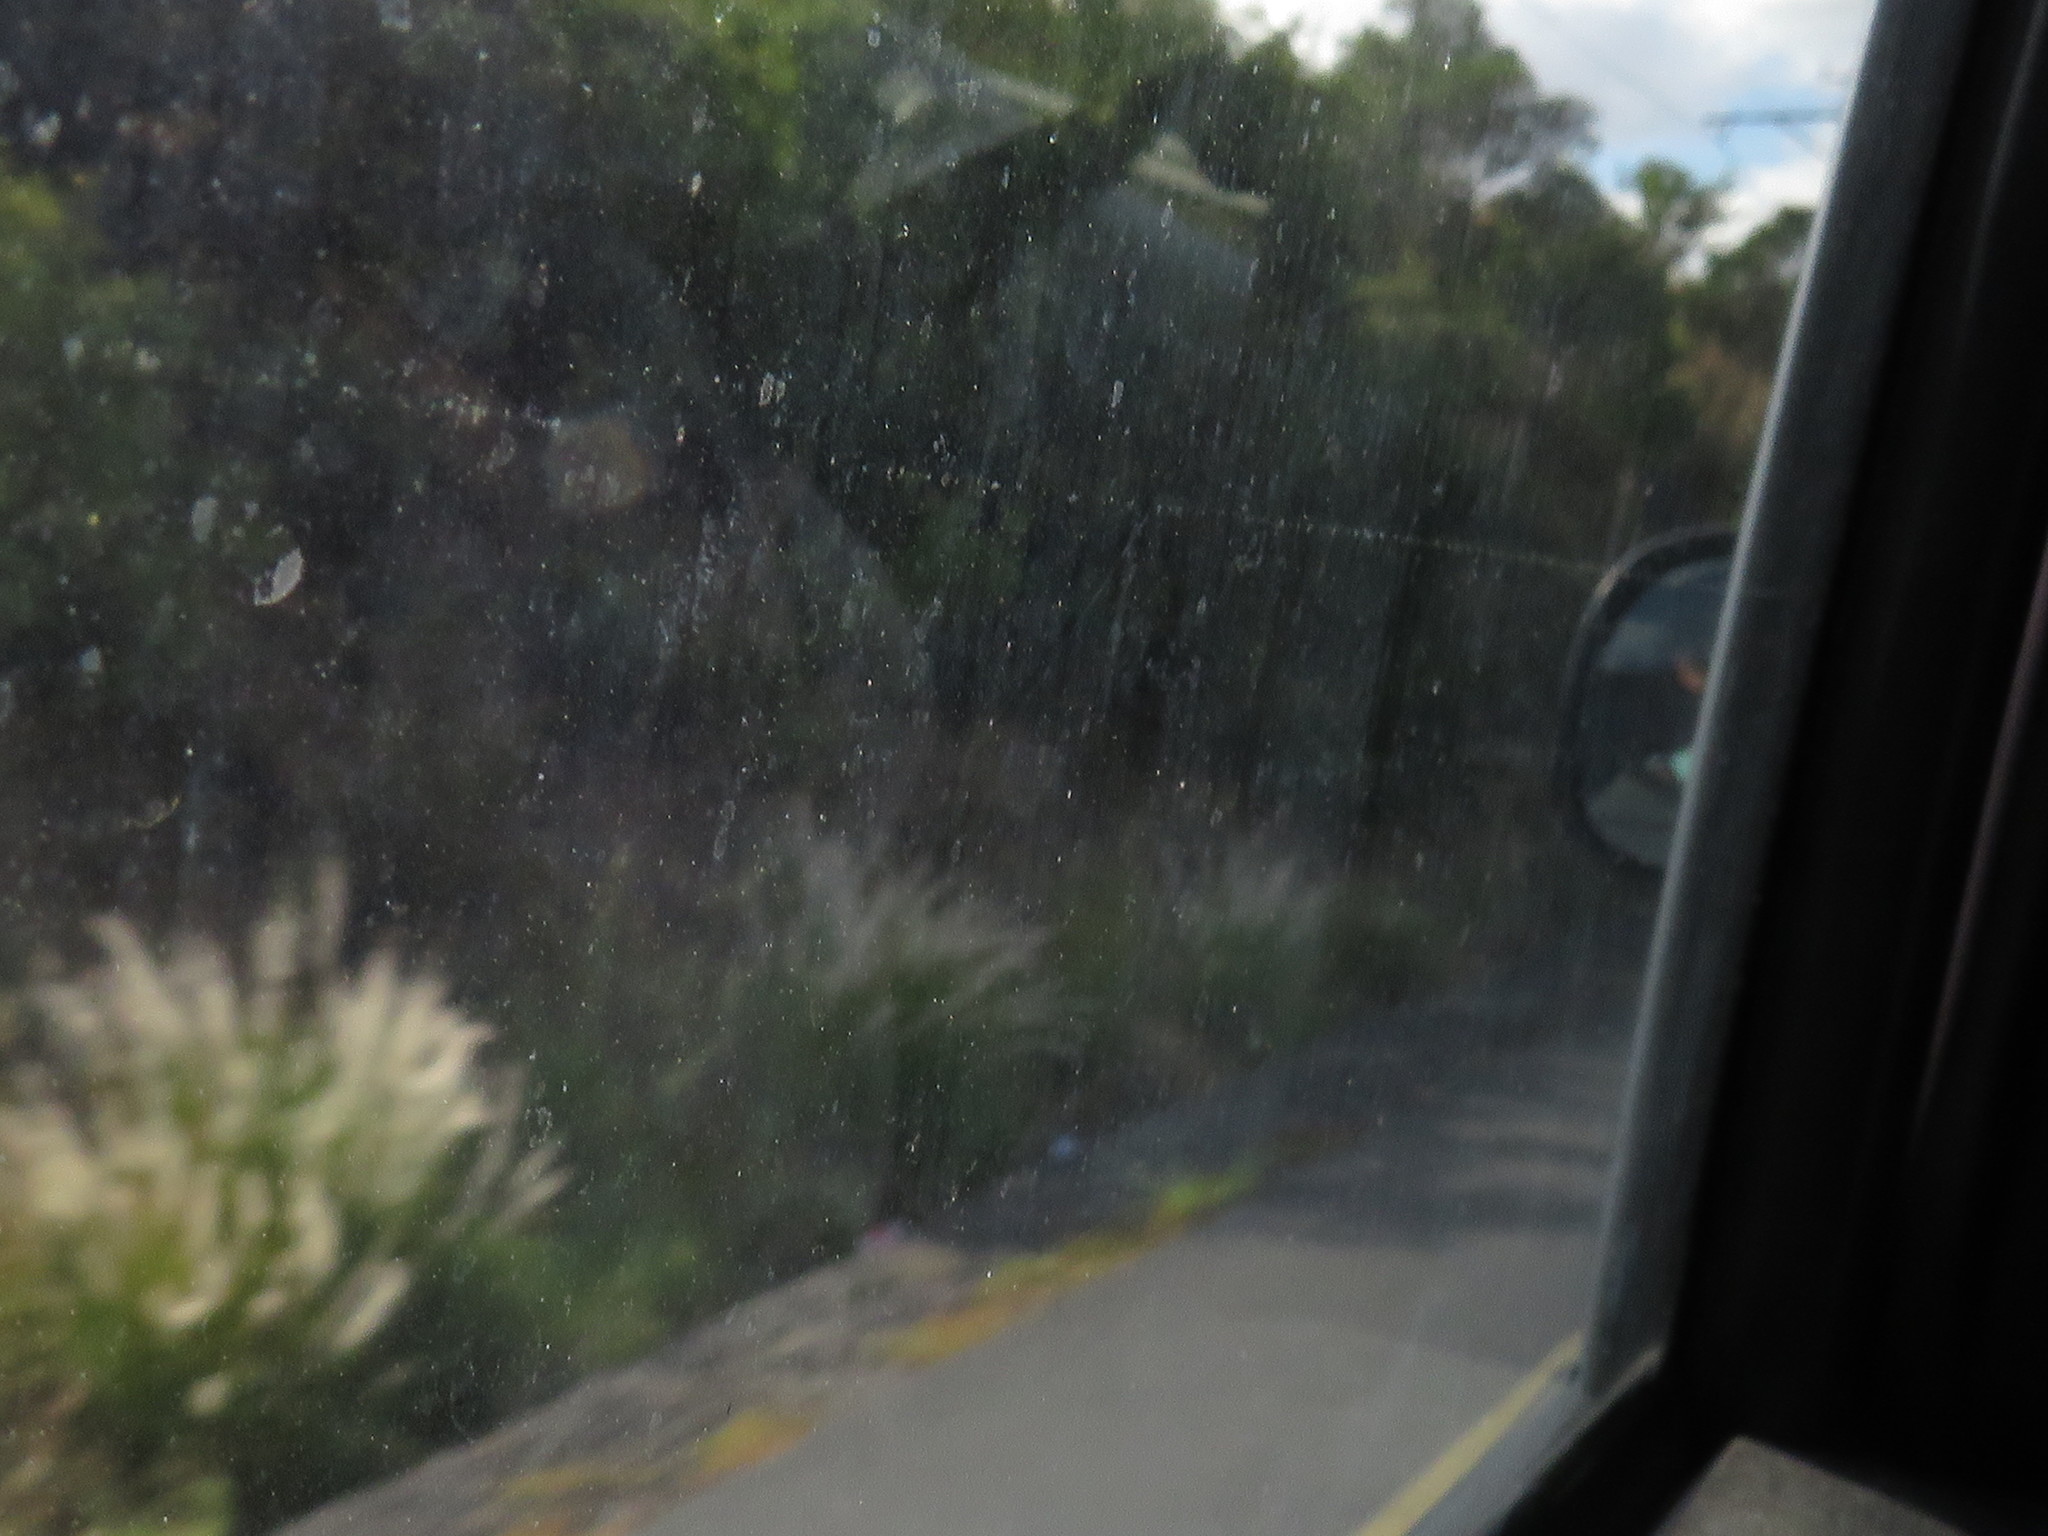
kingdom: Plantae
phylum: Tracheophyta
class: Liliopsida
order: Poales
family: Poaceae
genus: Cenchrus
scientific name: Cenchrus setaceus
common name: Crimson fountaingrass
